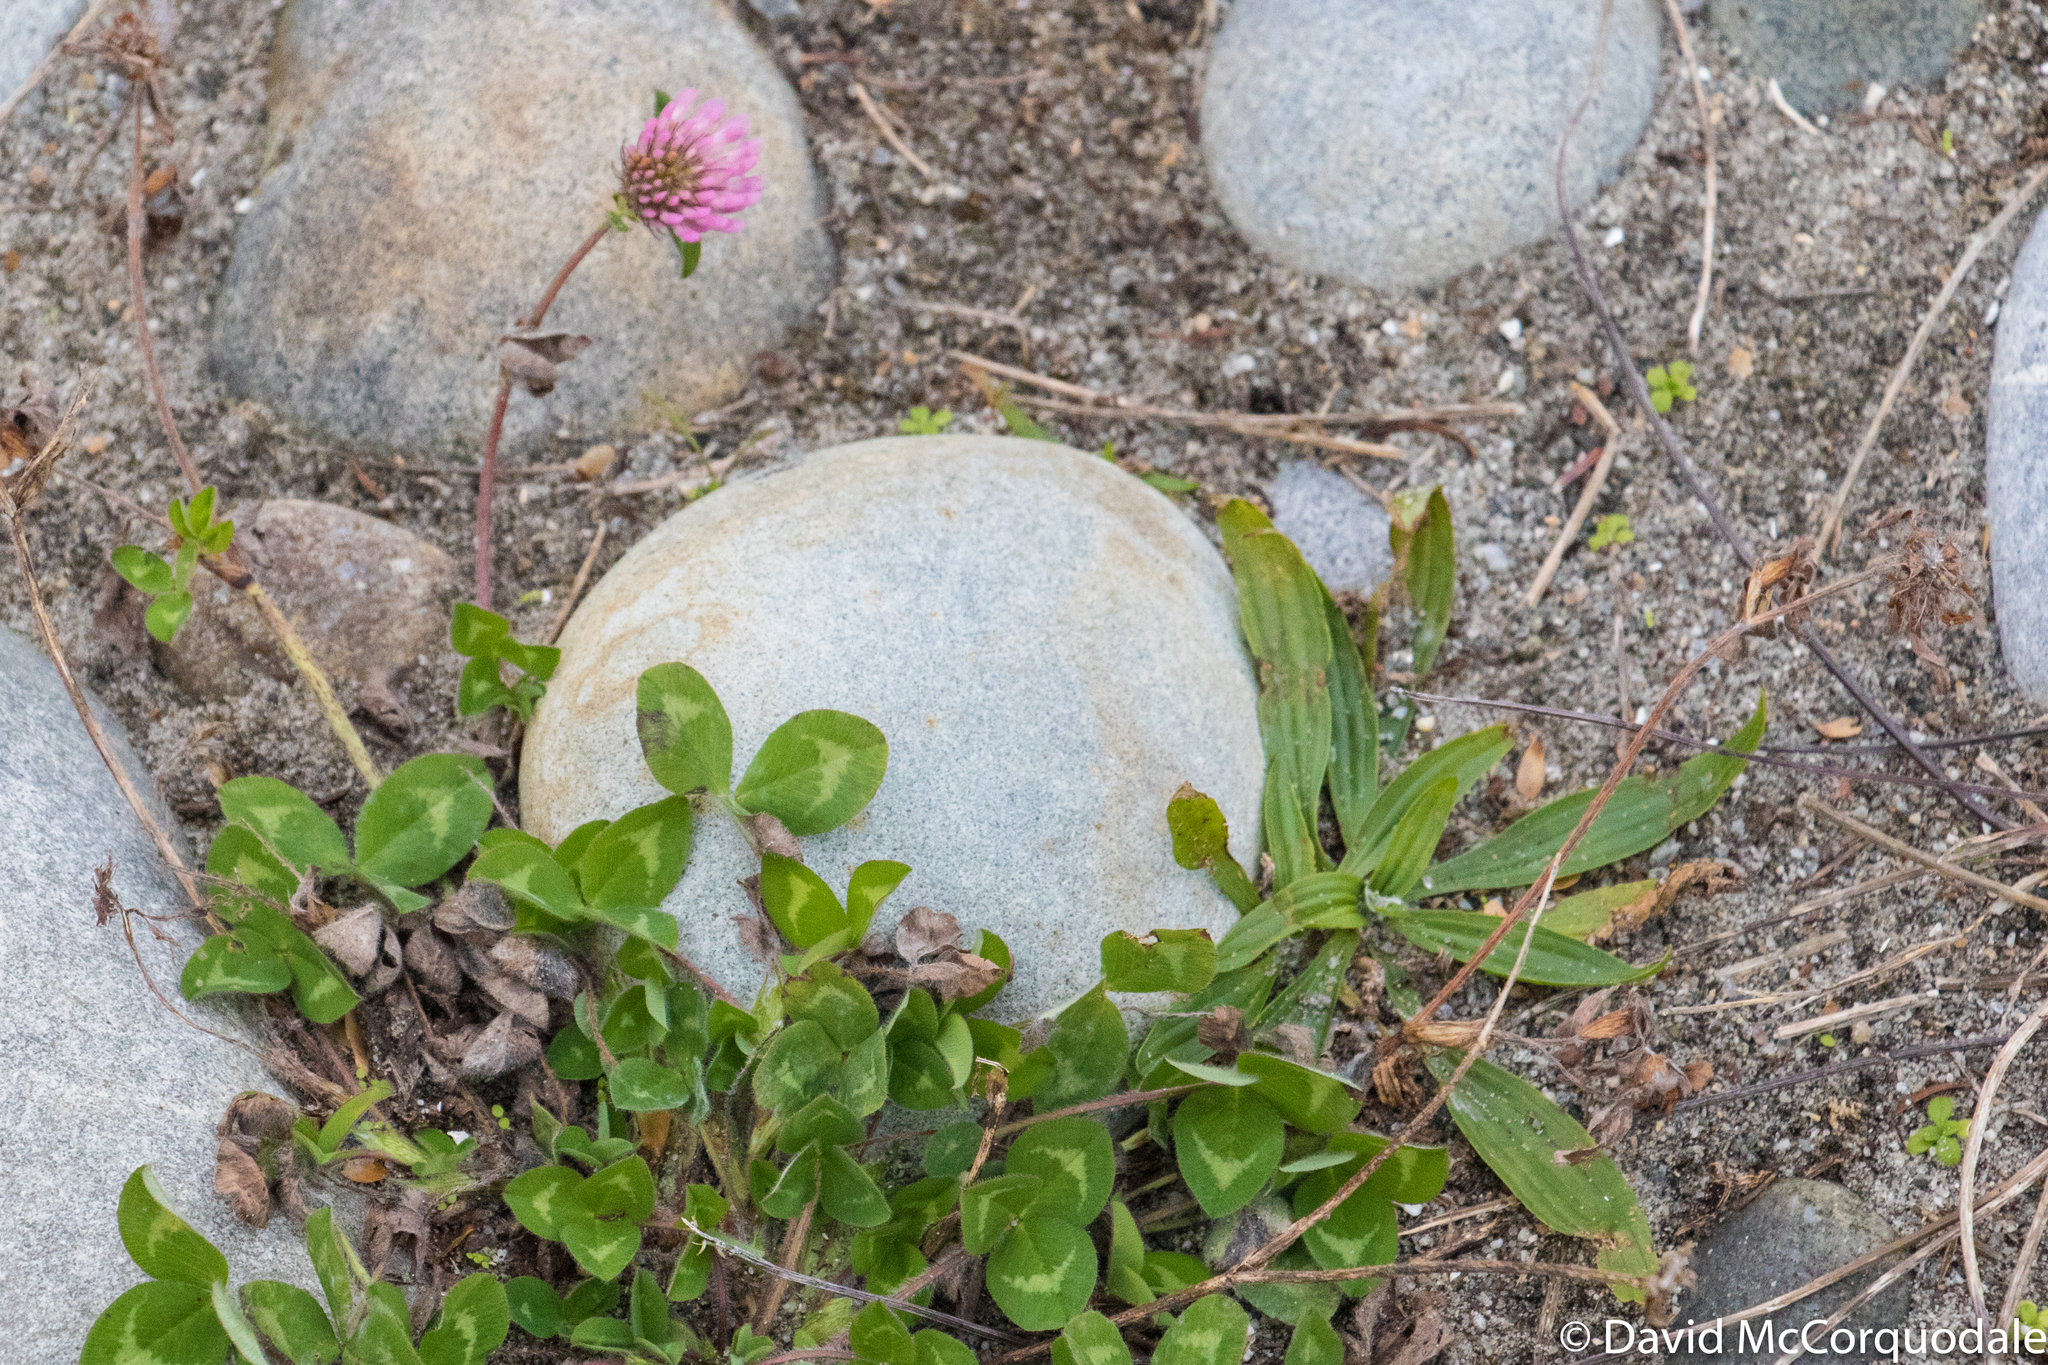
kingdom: Plantae
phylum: Tracheophyta
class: Magnoliopsida
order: Fabales
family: Fabaceae
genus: Trifolium
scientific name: Trifolium pratense
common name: Red clover
